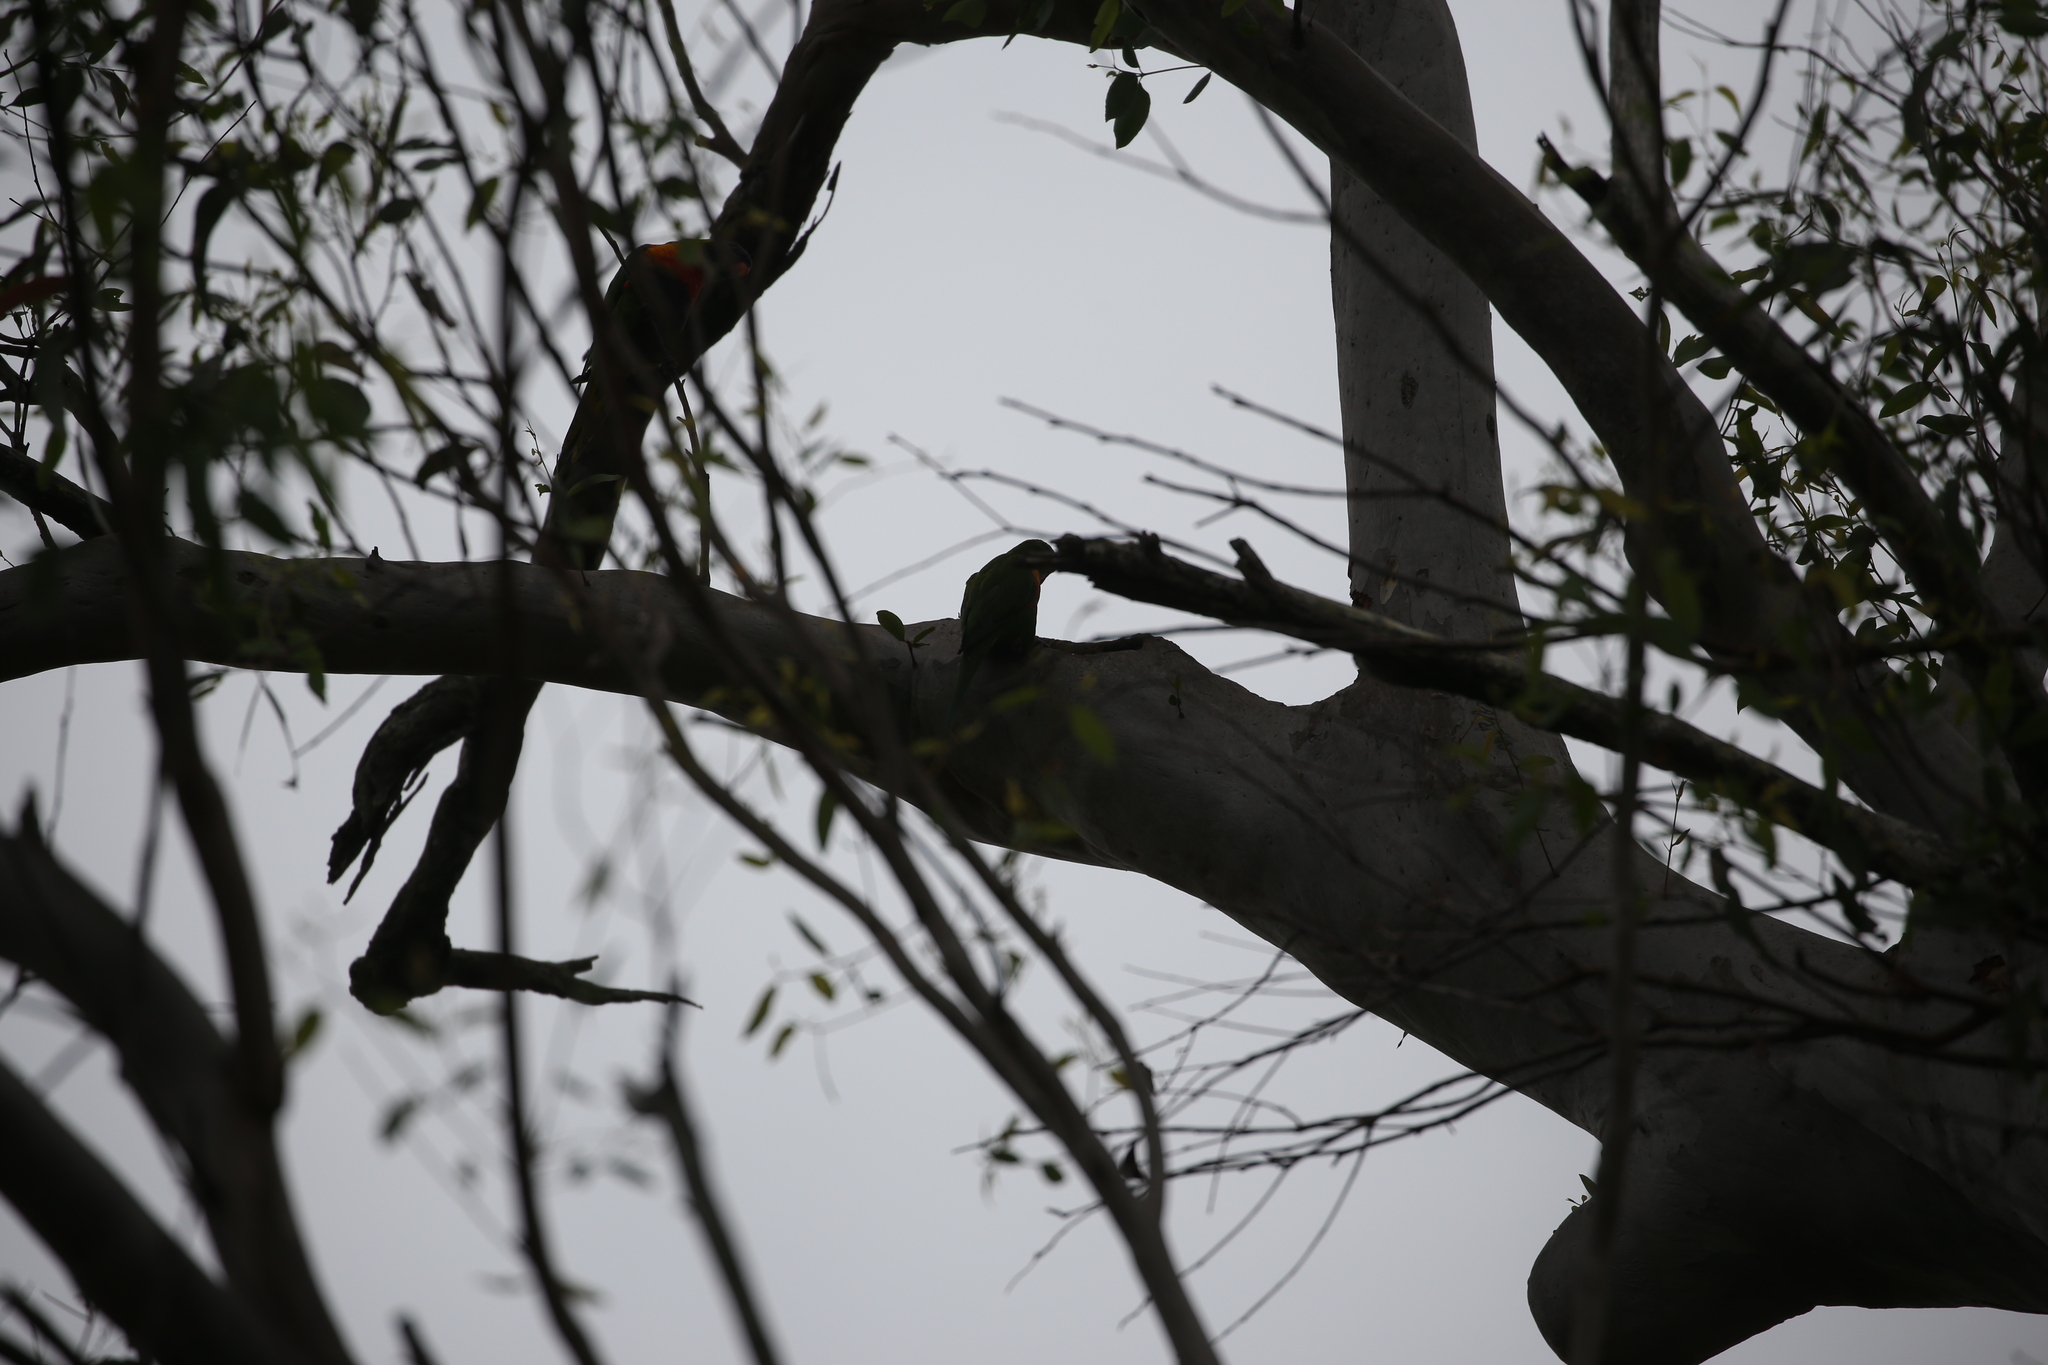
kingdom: Animalia
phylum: Chordata
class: Aves
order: Psittaciformes
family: Psittacidae
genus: Trichoglossus
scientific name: Trichoglossus haematodus
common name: Coconut lorikeet
